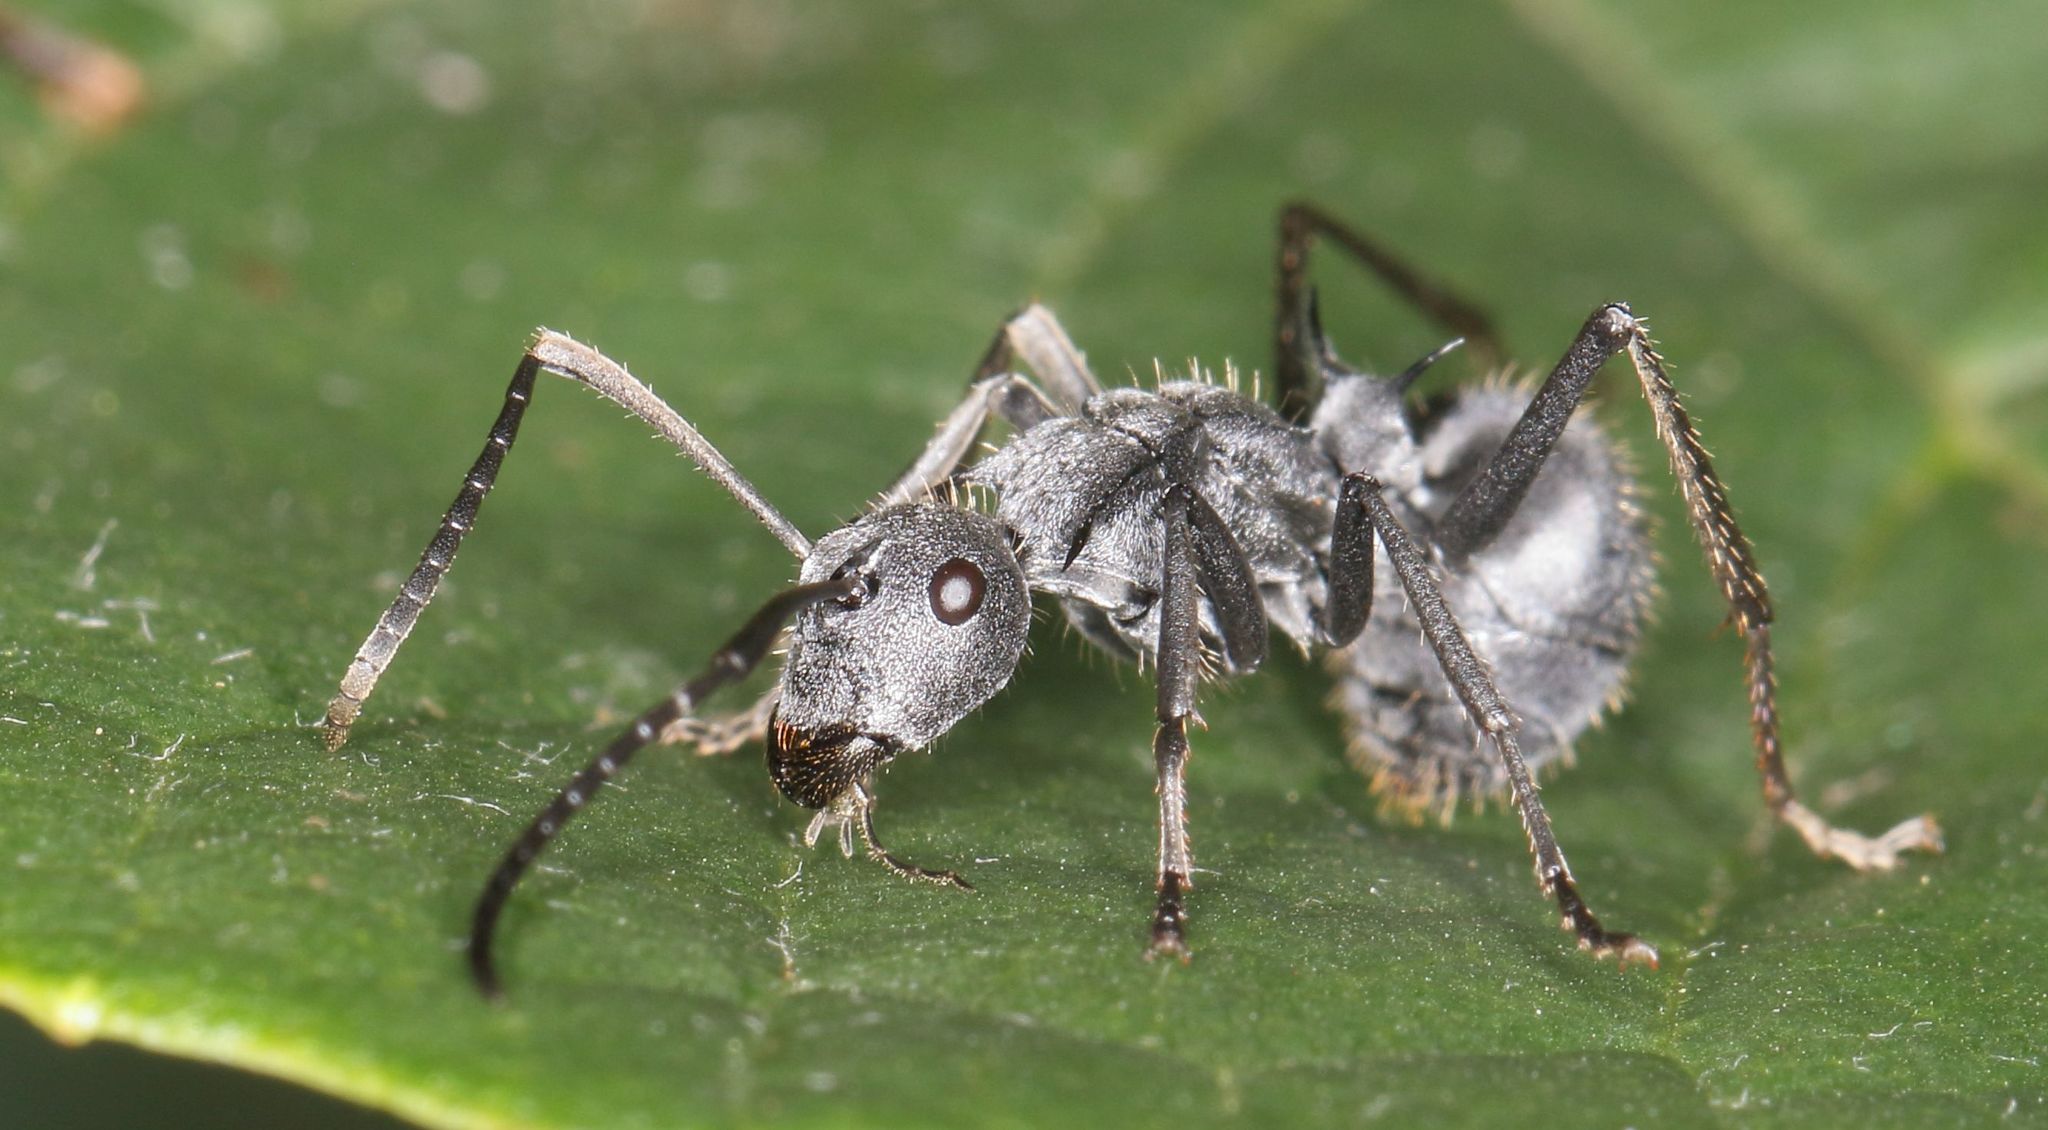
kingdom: Animalia
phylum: Arthropoda
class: Insecta
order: Hymenoptera
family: Formicidae
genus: Polyrhachis
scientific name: Polyrhachis schistacea
